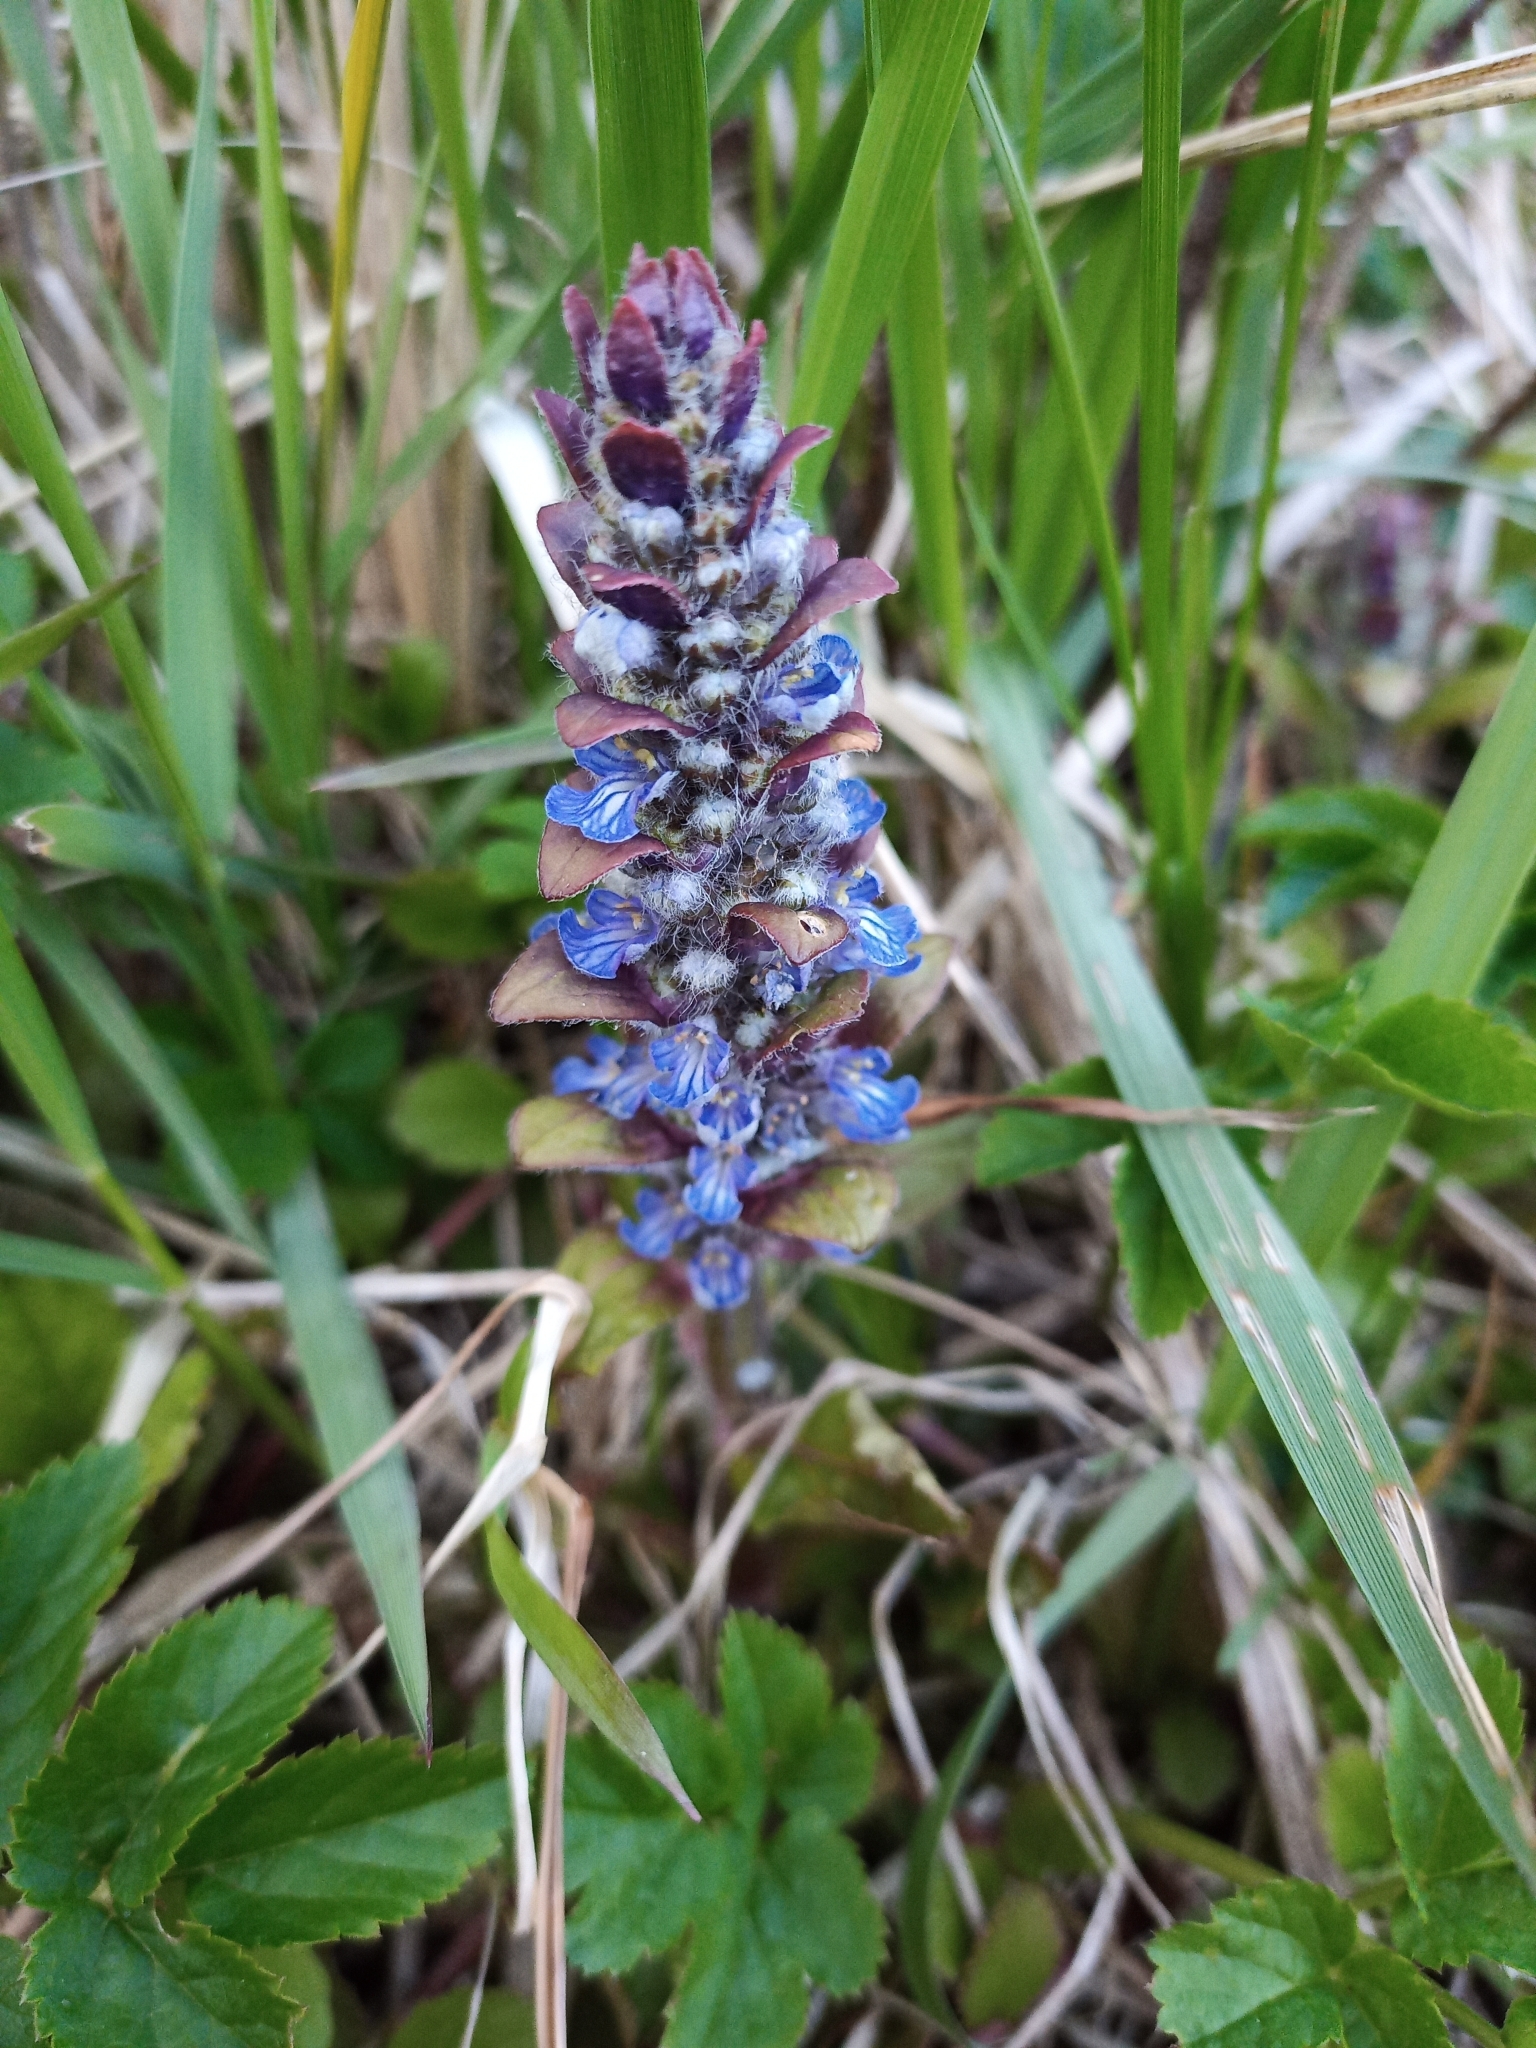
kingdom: Plantae
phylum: Tracheophyta
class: Magnoliopsida
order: Lamiales
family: Lamiaceae
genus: Ajuga
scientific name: Ajuga reptans
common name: Bugle
